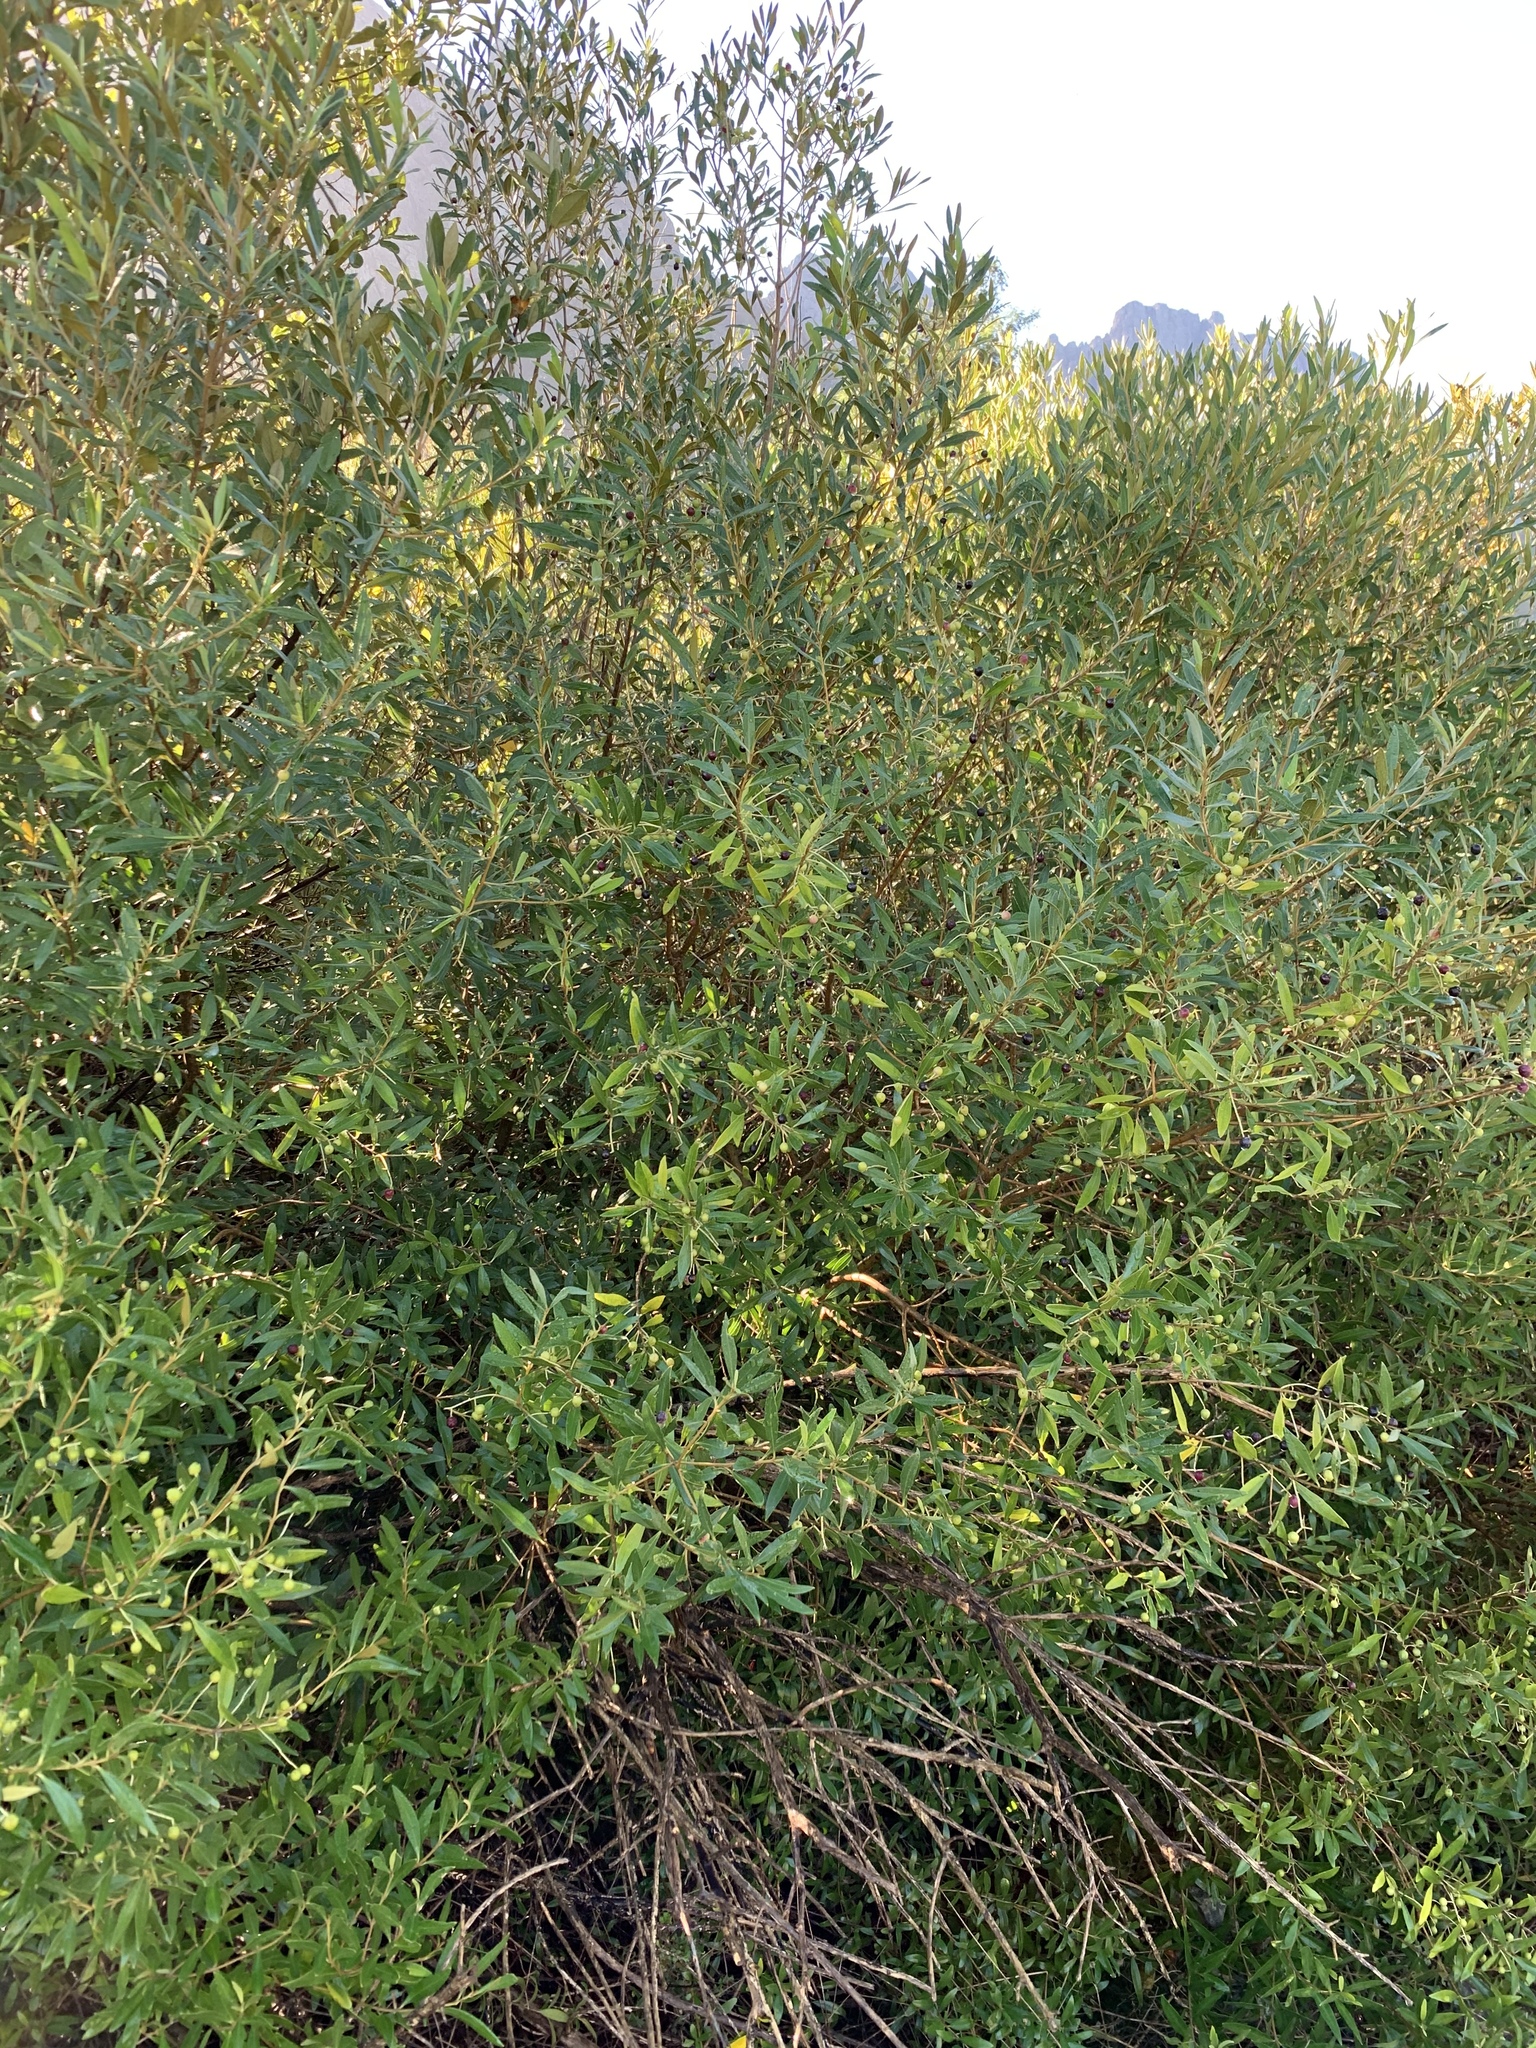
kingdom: Plantae
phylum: Tracheophyta
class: Magnoliopsida
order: Lamiales
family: Oleaceae
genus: Olea
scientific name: Olea europaea
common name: Olive
